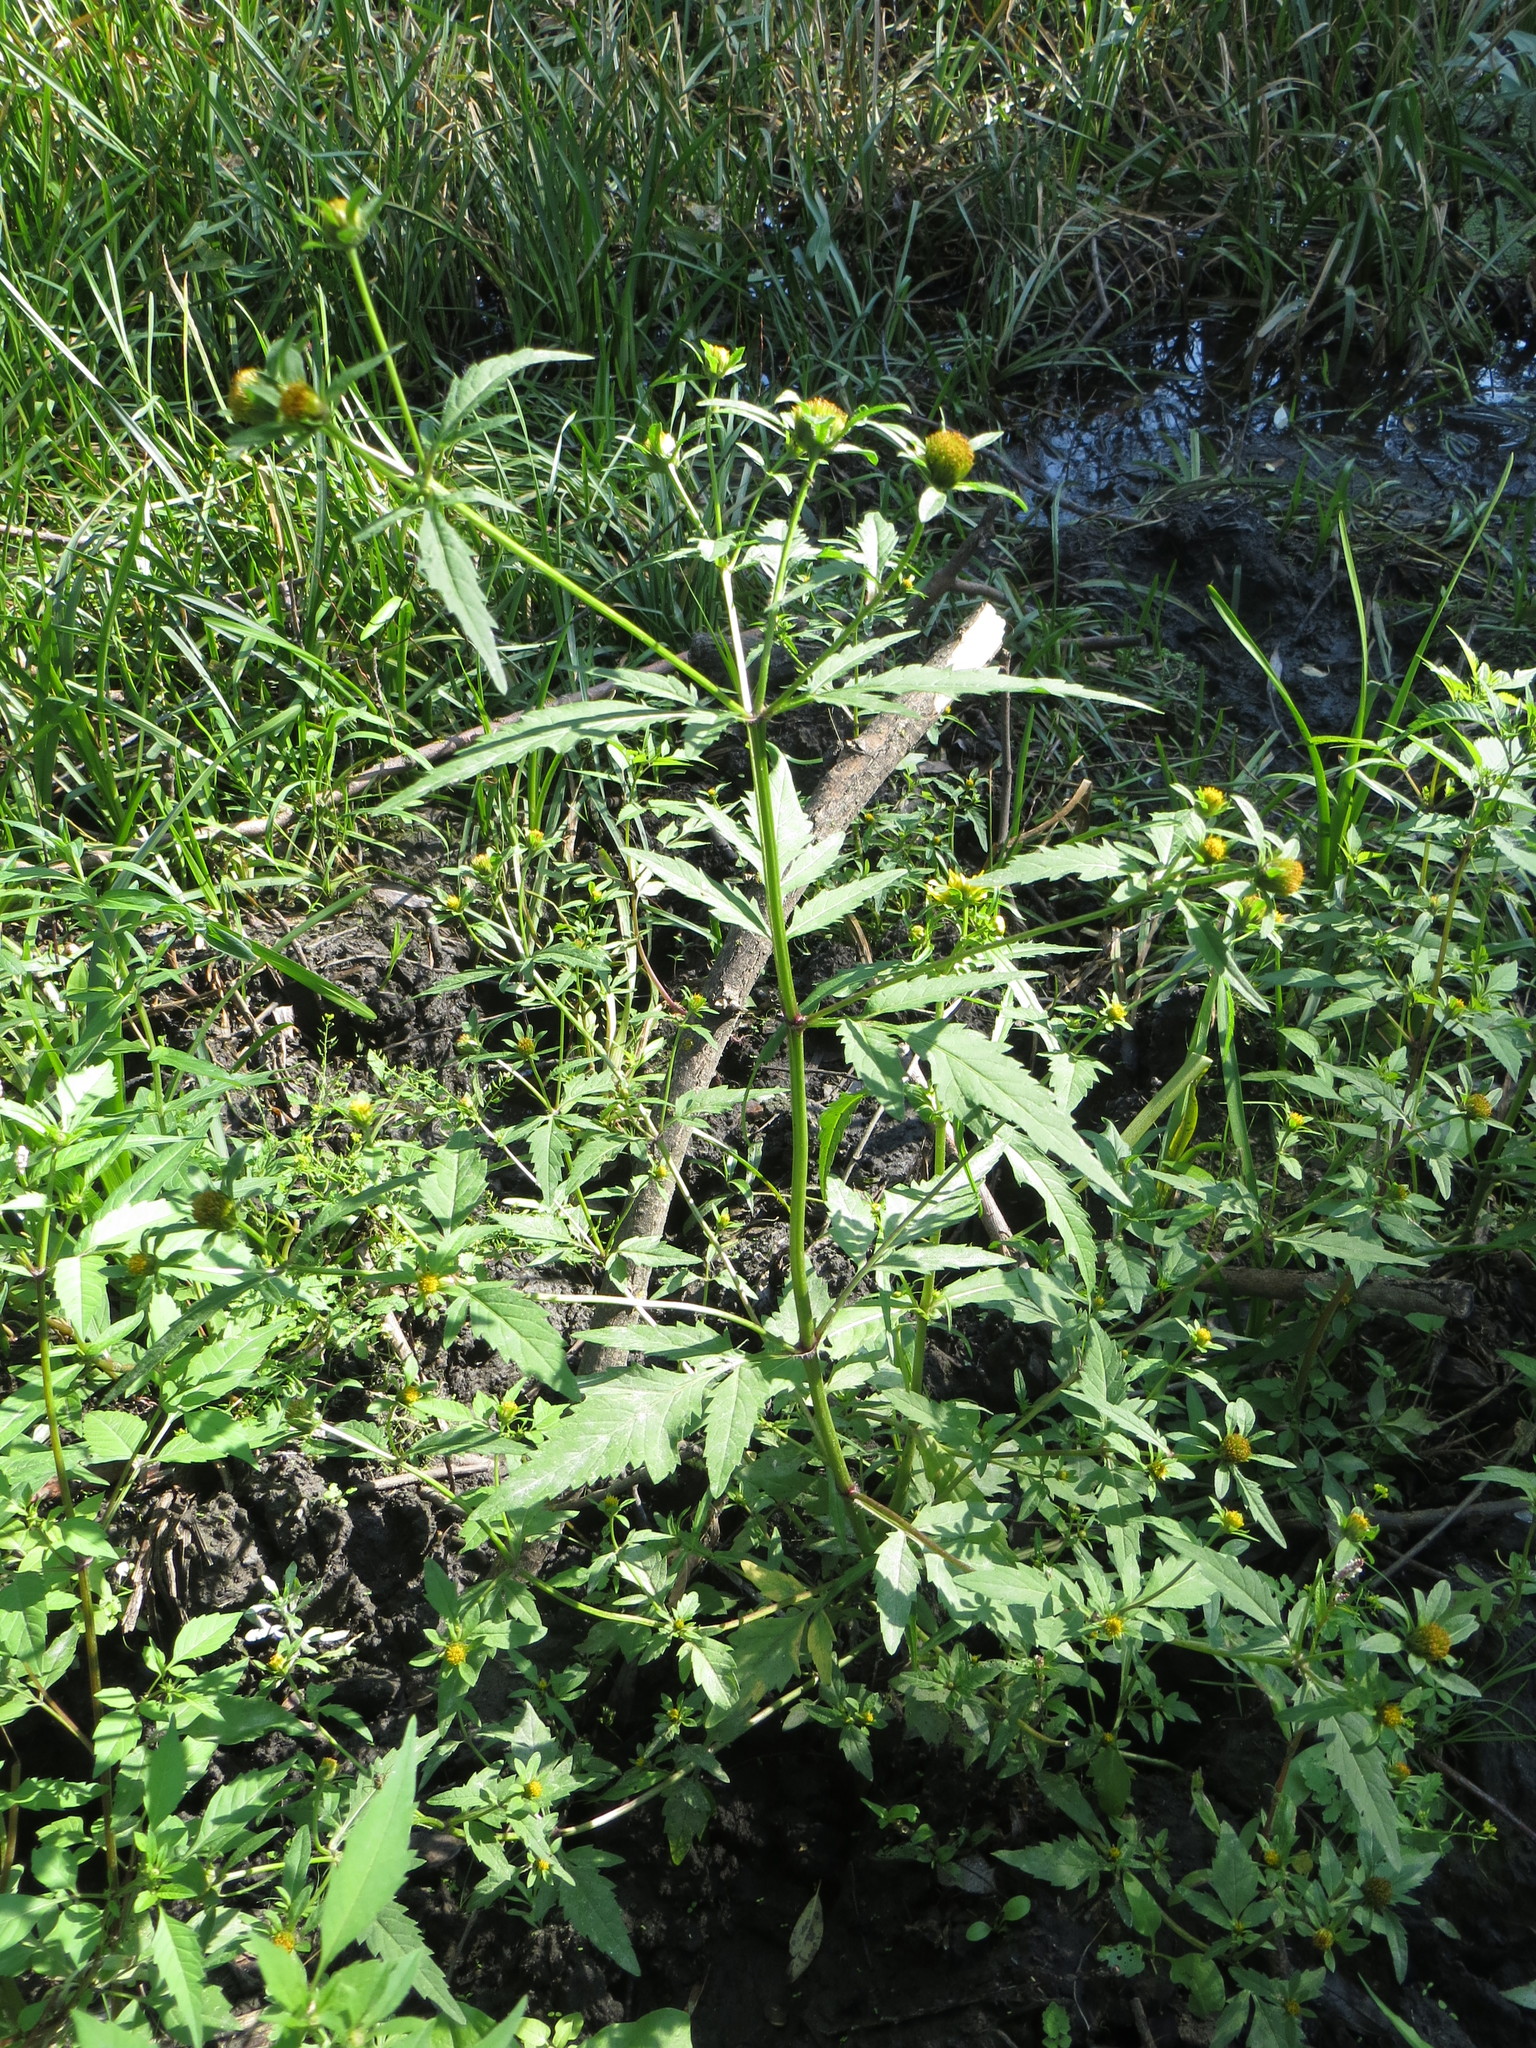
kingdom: Plantae
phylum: Tracheophyta
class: Magnoliopsida
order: Asterales
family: Asteraceae
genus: Bidens
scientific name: Bidens cernua
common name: Nodding bur-marigold
